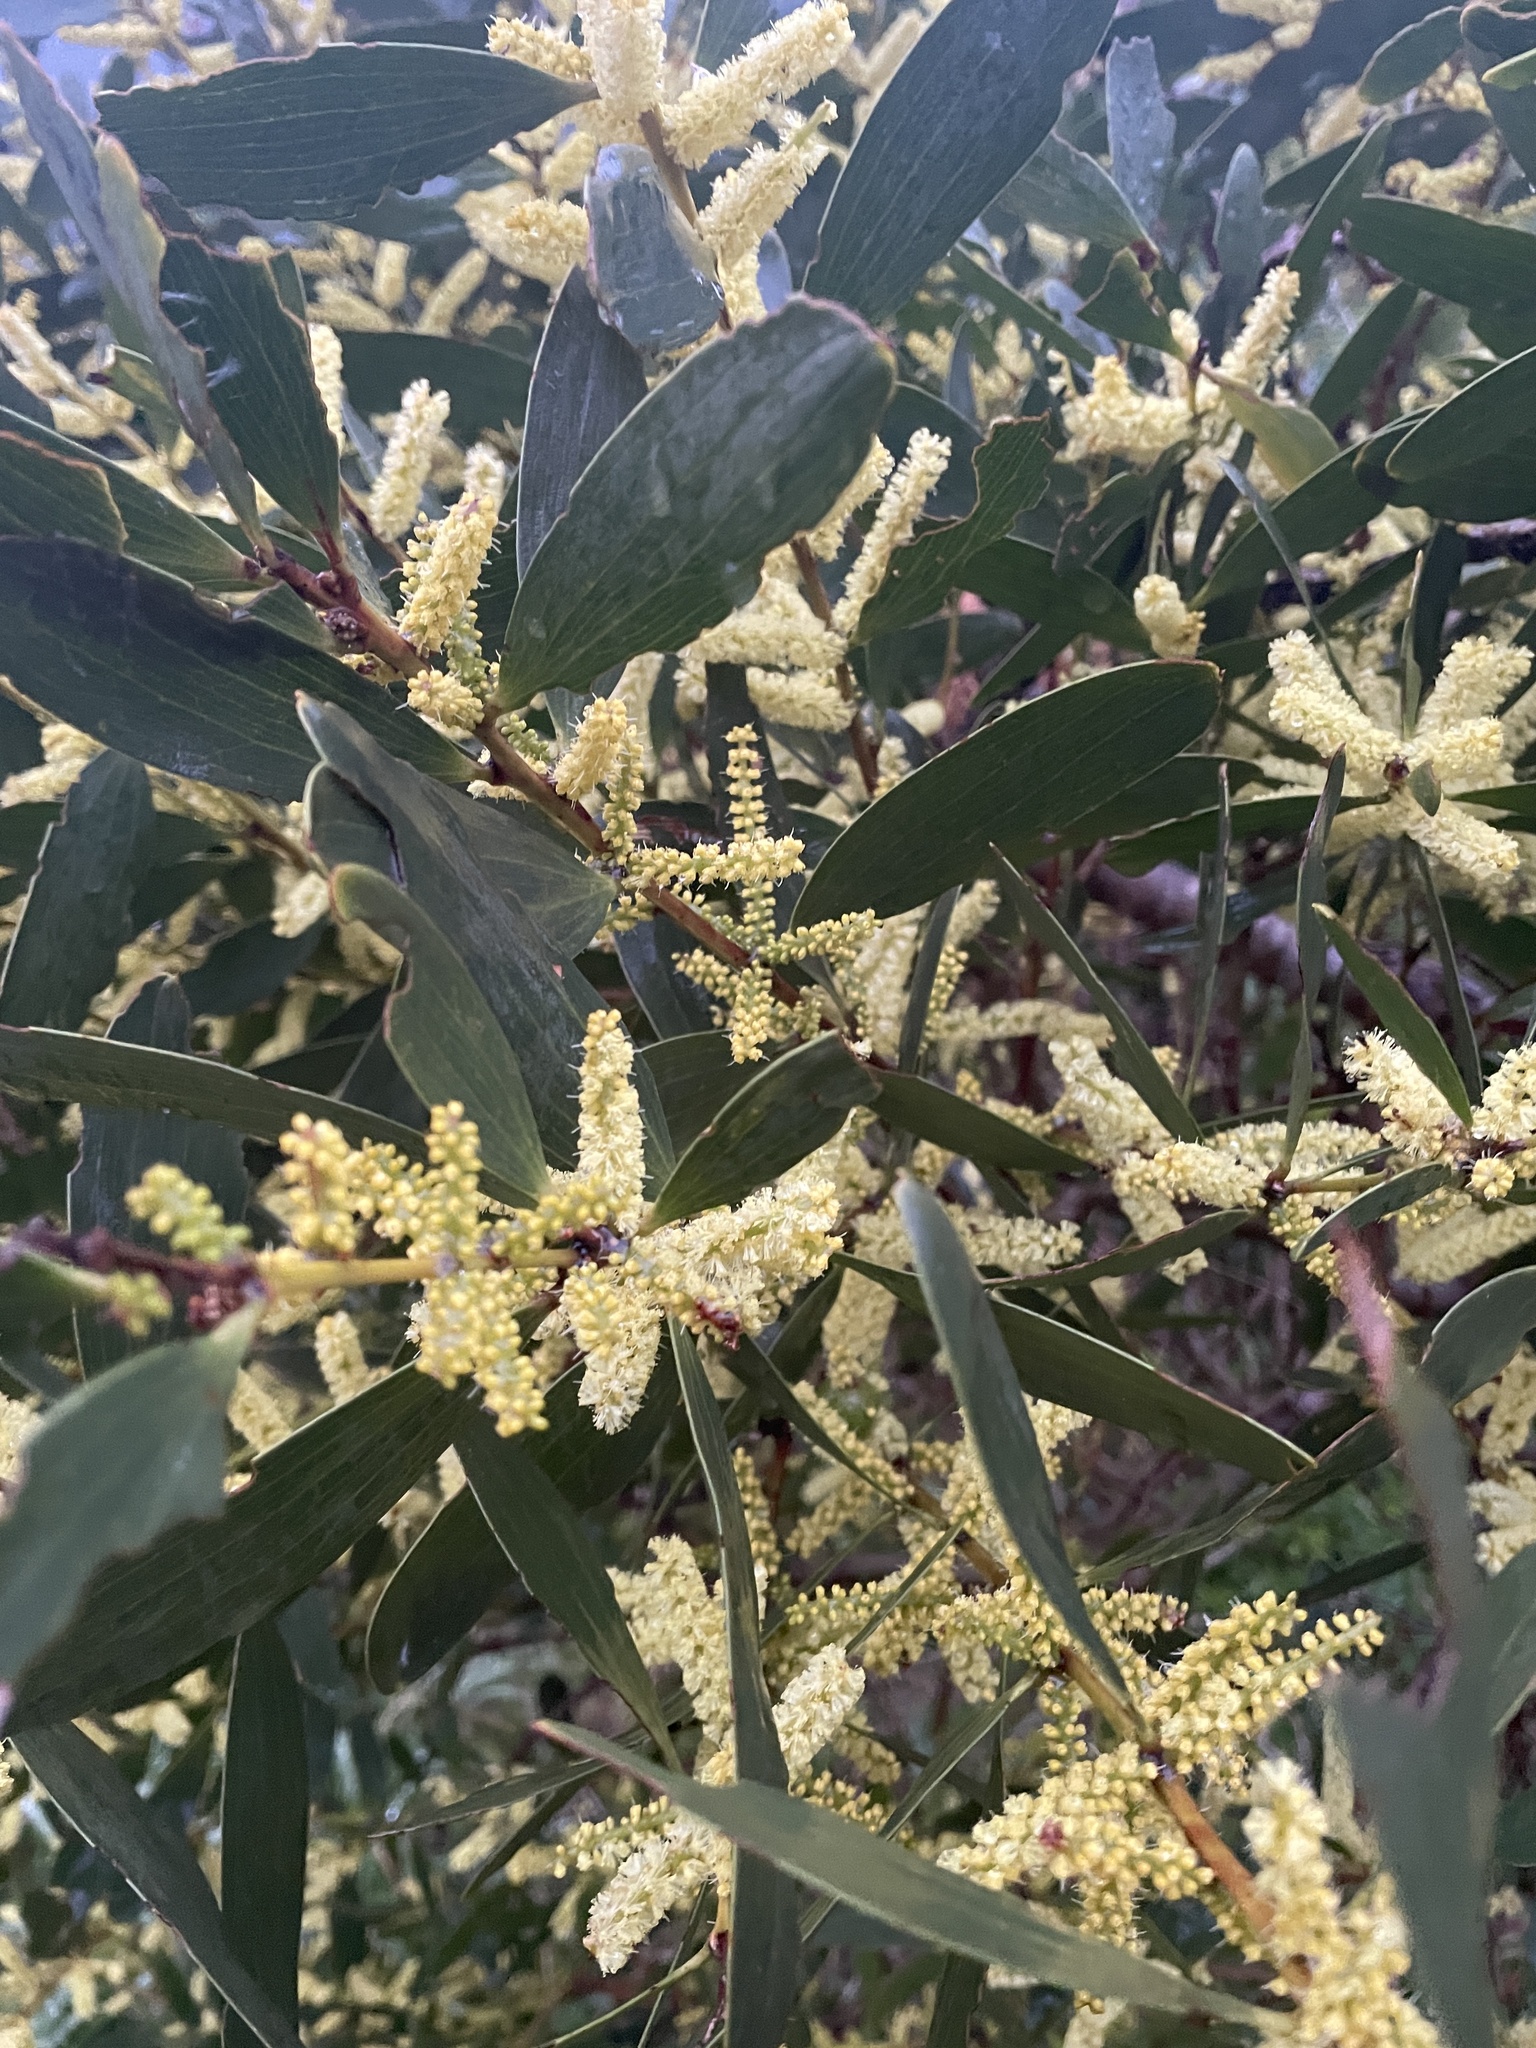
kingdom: Plantae
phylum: Tracheophyta
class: Magnoliopsida
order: Fabales
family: Fabaceae
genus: Acacia
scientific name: Acacia longifolia
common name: Sydney golden wattle
